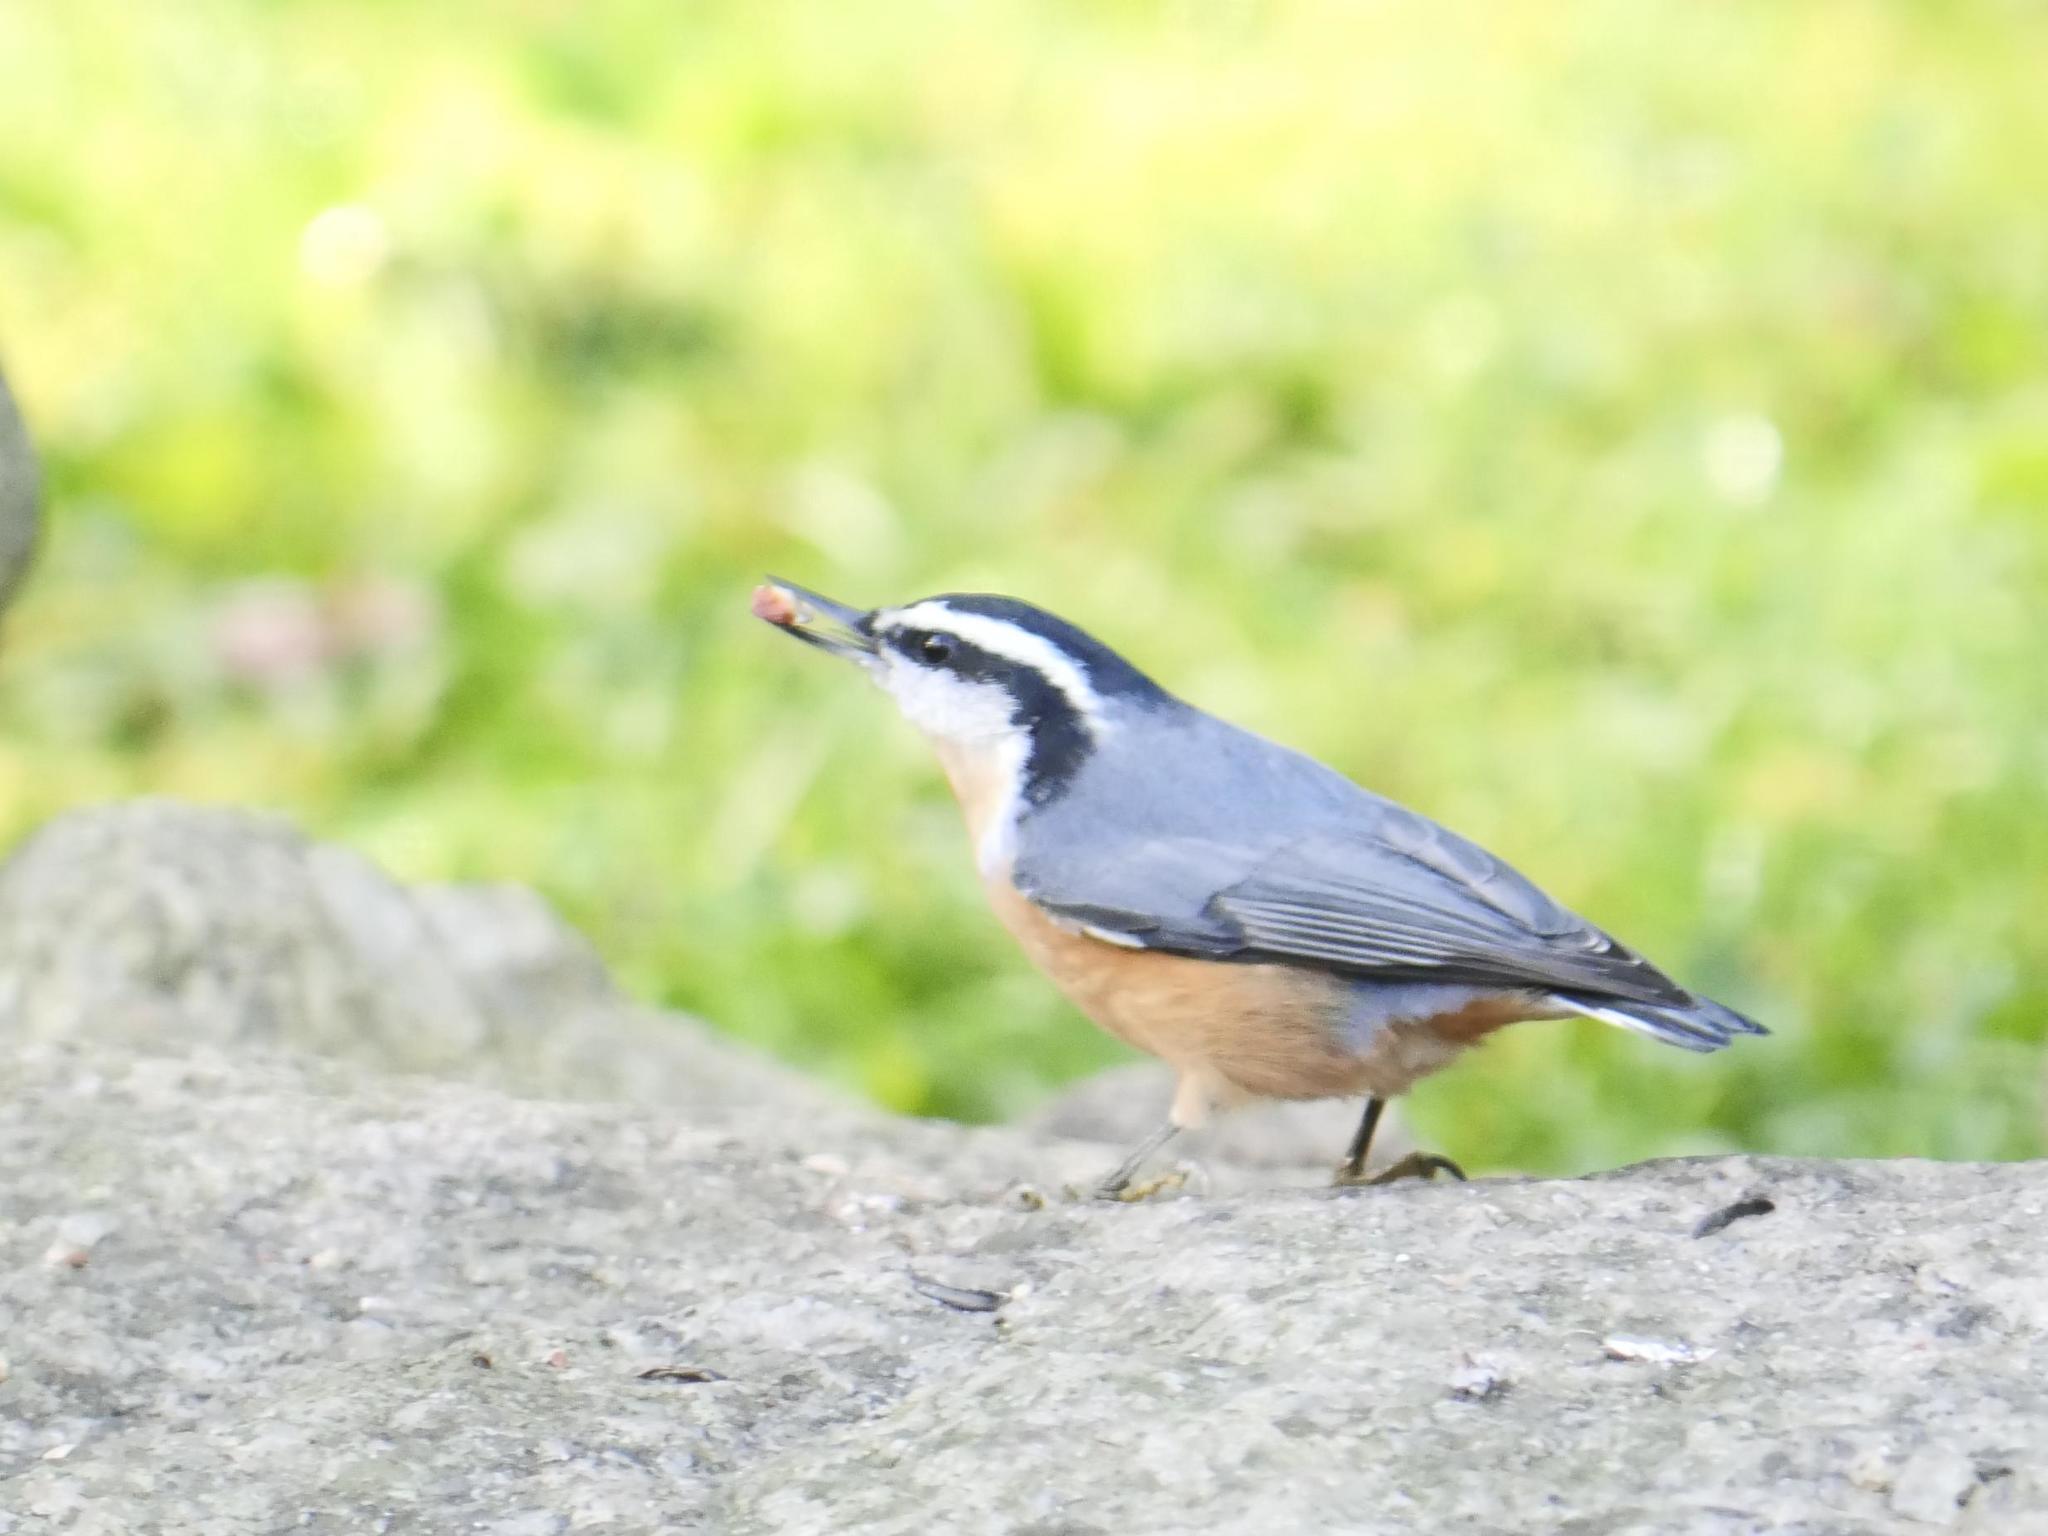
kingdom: Animalia
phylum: Chordata
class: Aves
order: Passeriformes
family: Sittidae
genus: Sitta
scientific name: Sitta canadensis
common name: Red-breasted nuthatch
